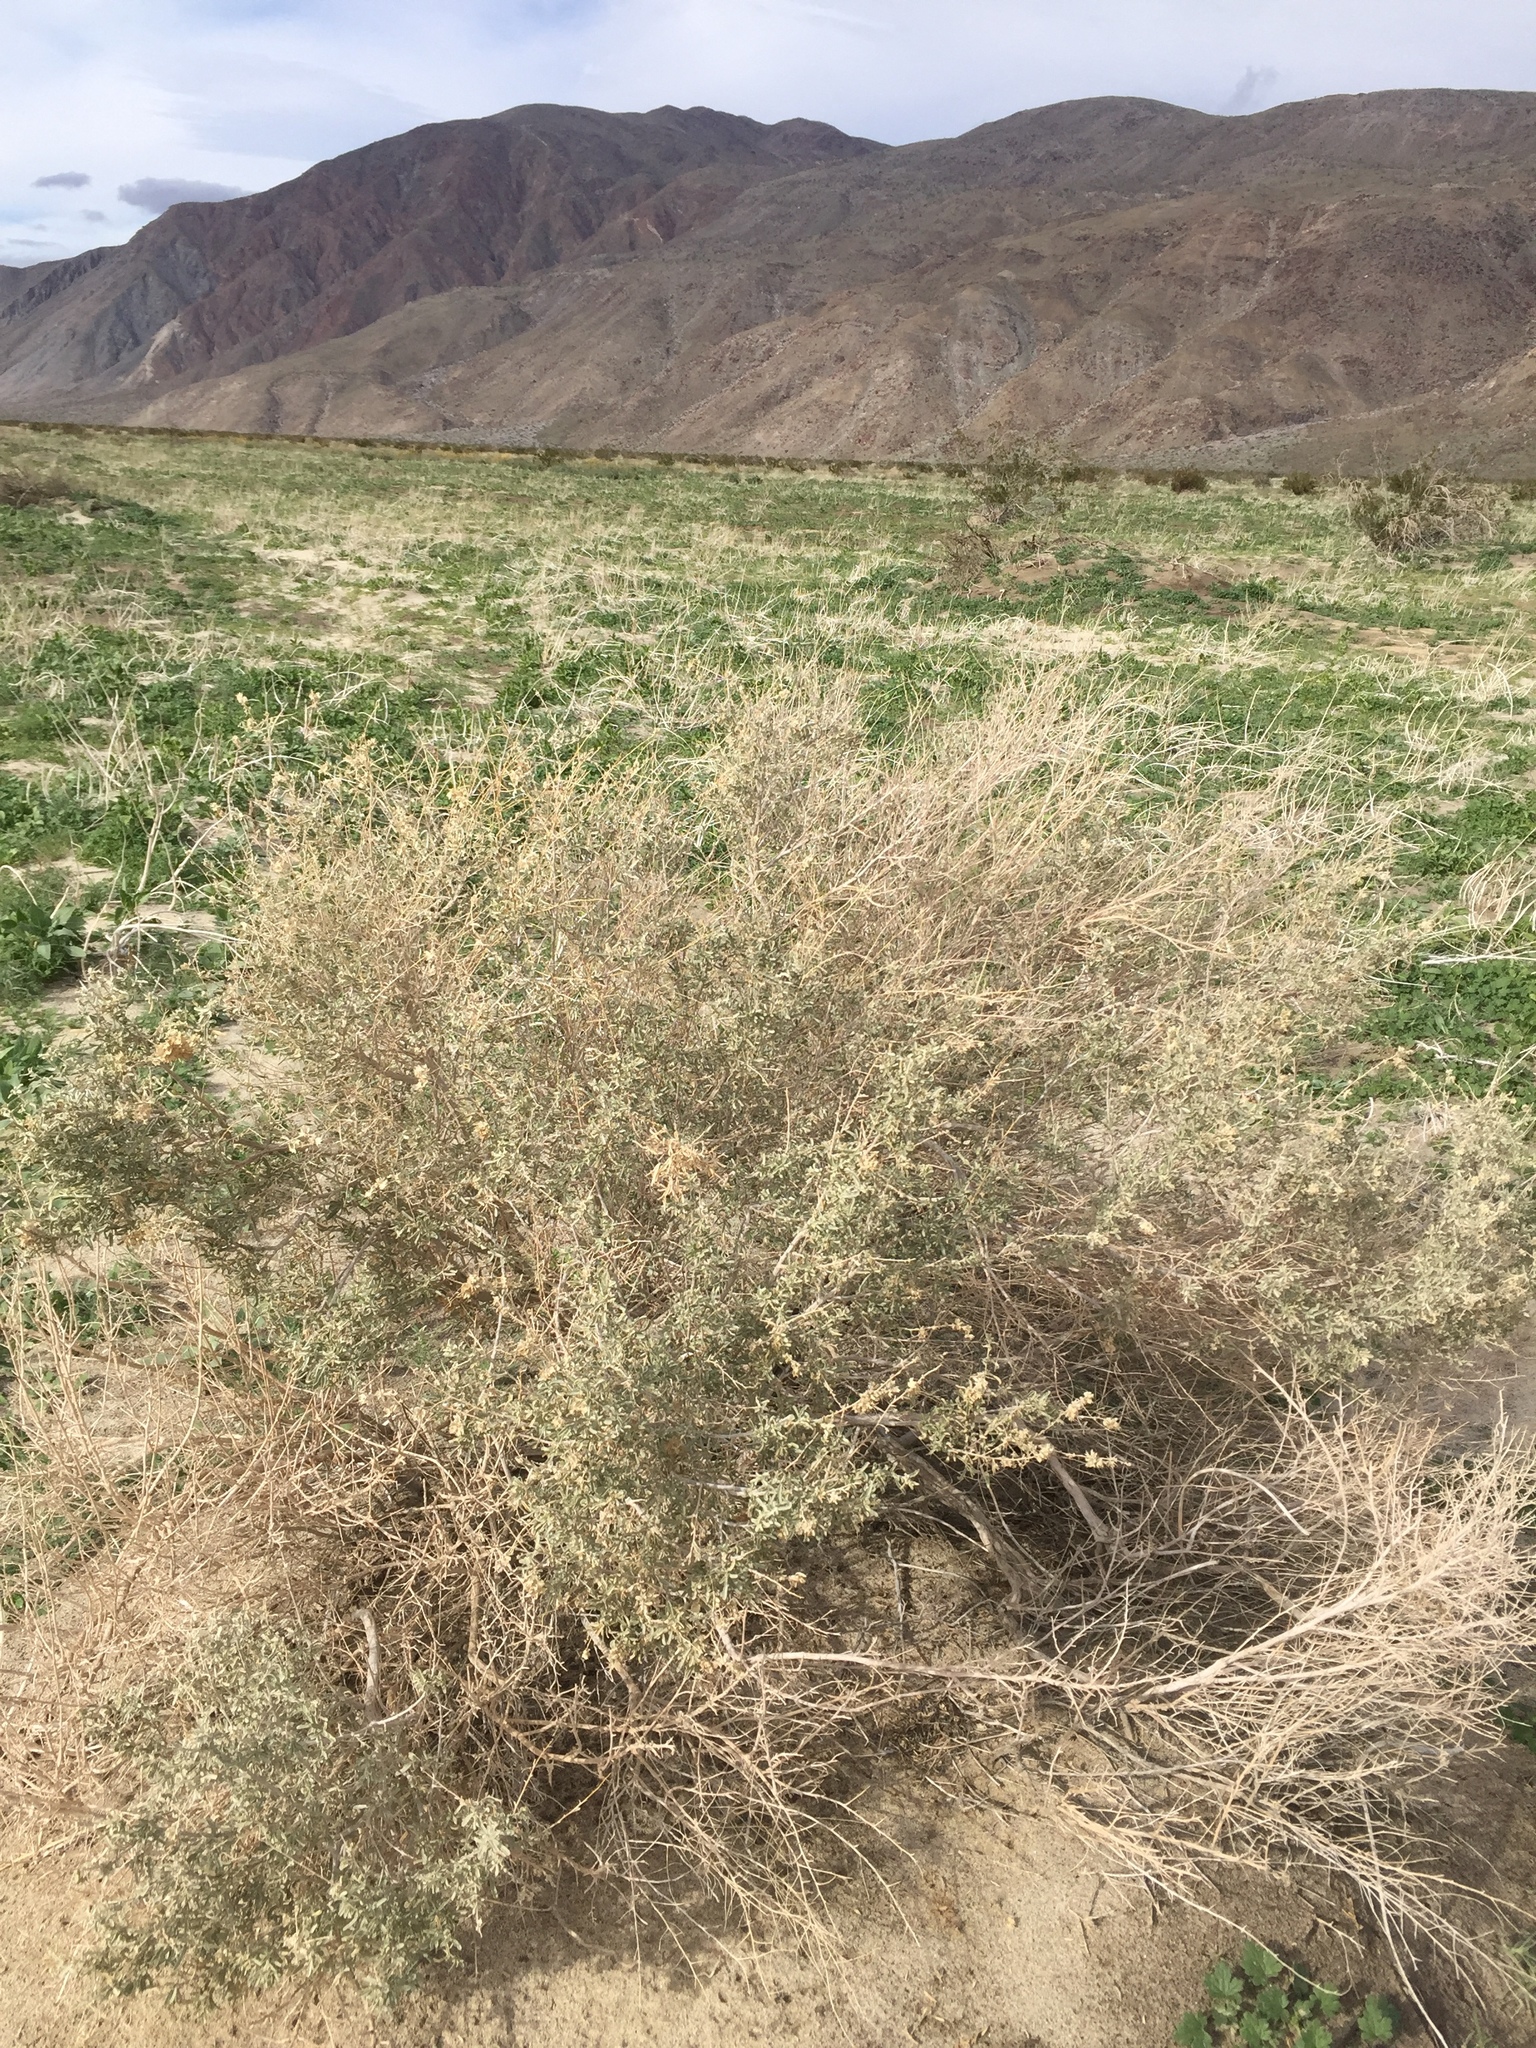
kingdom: Plantae
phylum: Tracheophyta
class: Magnoliopsida
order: Caryophyllales
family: Amaranthaceae
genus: Atriplex
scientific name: Atriplex canescens
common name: Four-wing saltbush
